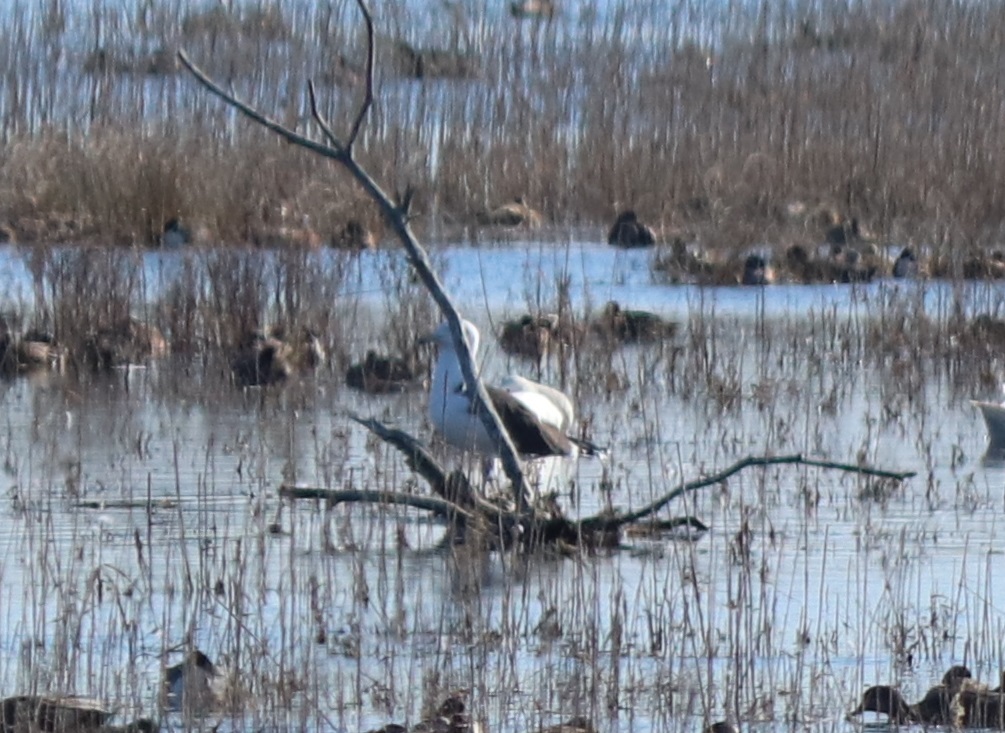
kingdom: Animalia
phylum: Chordata
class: Aves
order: Charadriiformes
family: Laridae
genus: Larus
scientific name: Larus marinus
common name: Great black-backed gull
